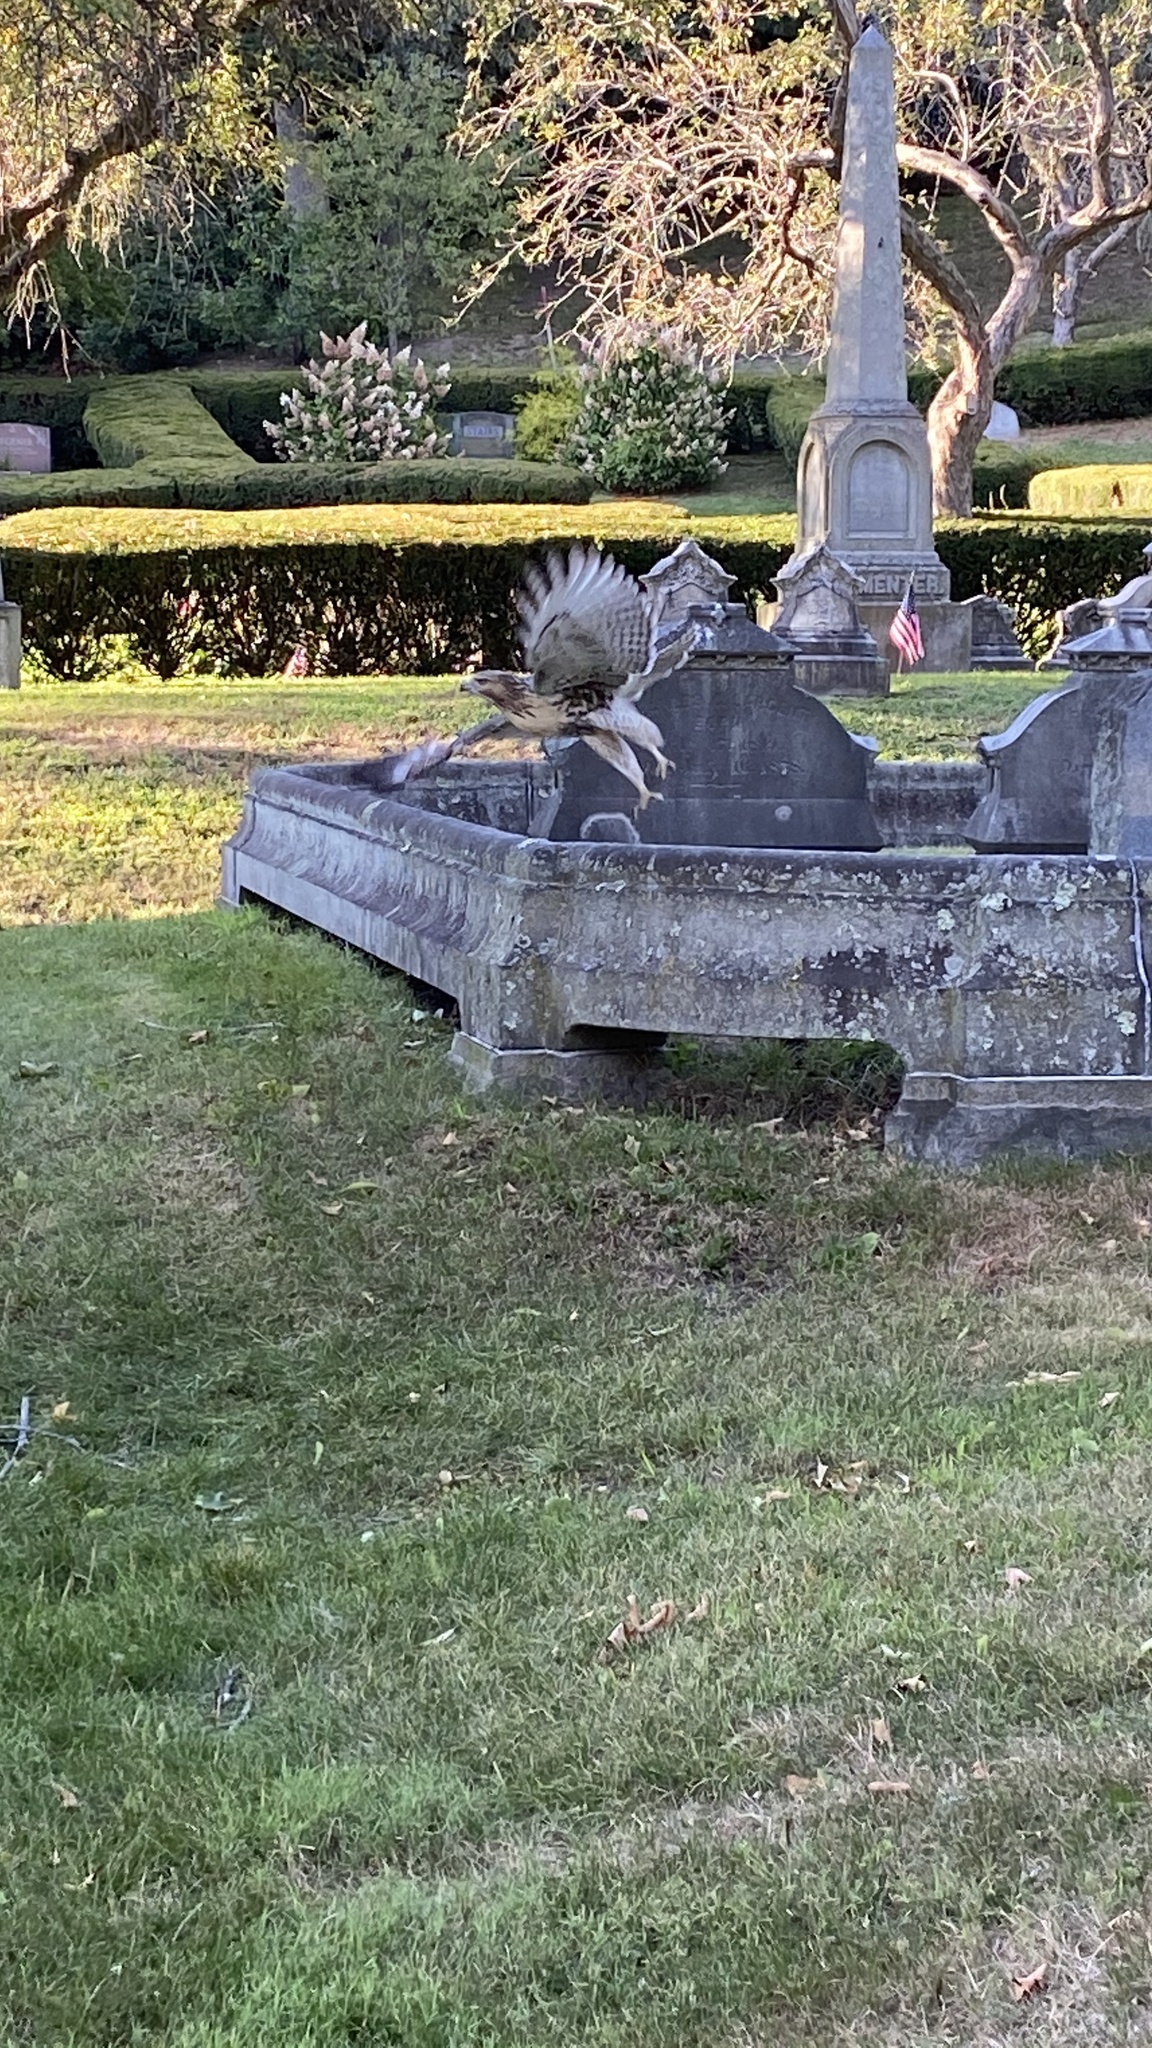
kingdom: Animalia
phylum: Chordata
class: Aves
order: Accipitriformes
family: Accipitridae
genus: Buteo
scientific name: Buteo jamaicensis
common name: Red-tailed hawk
